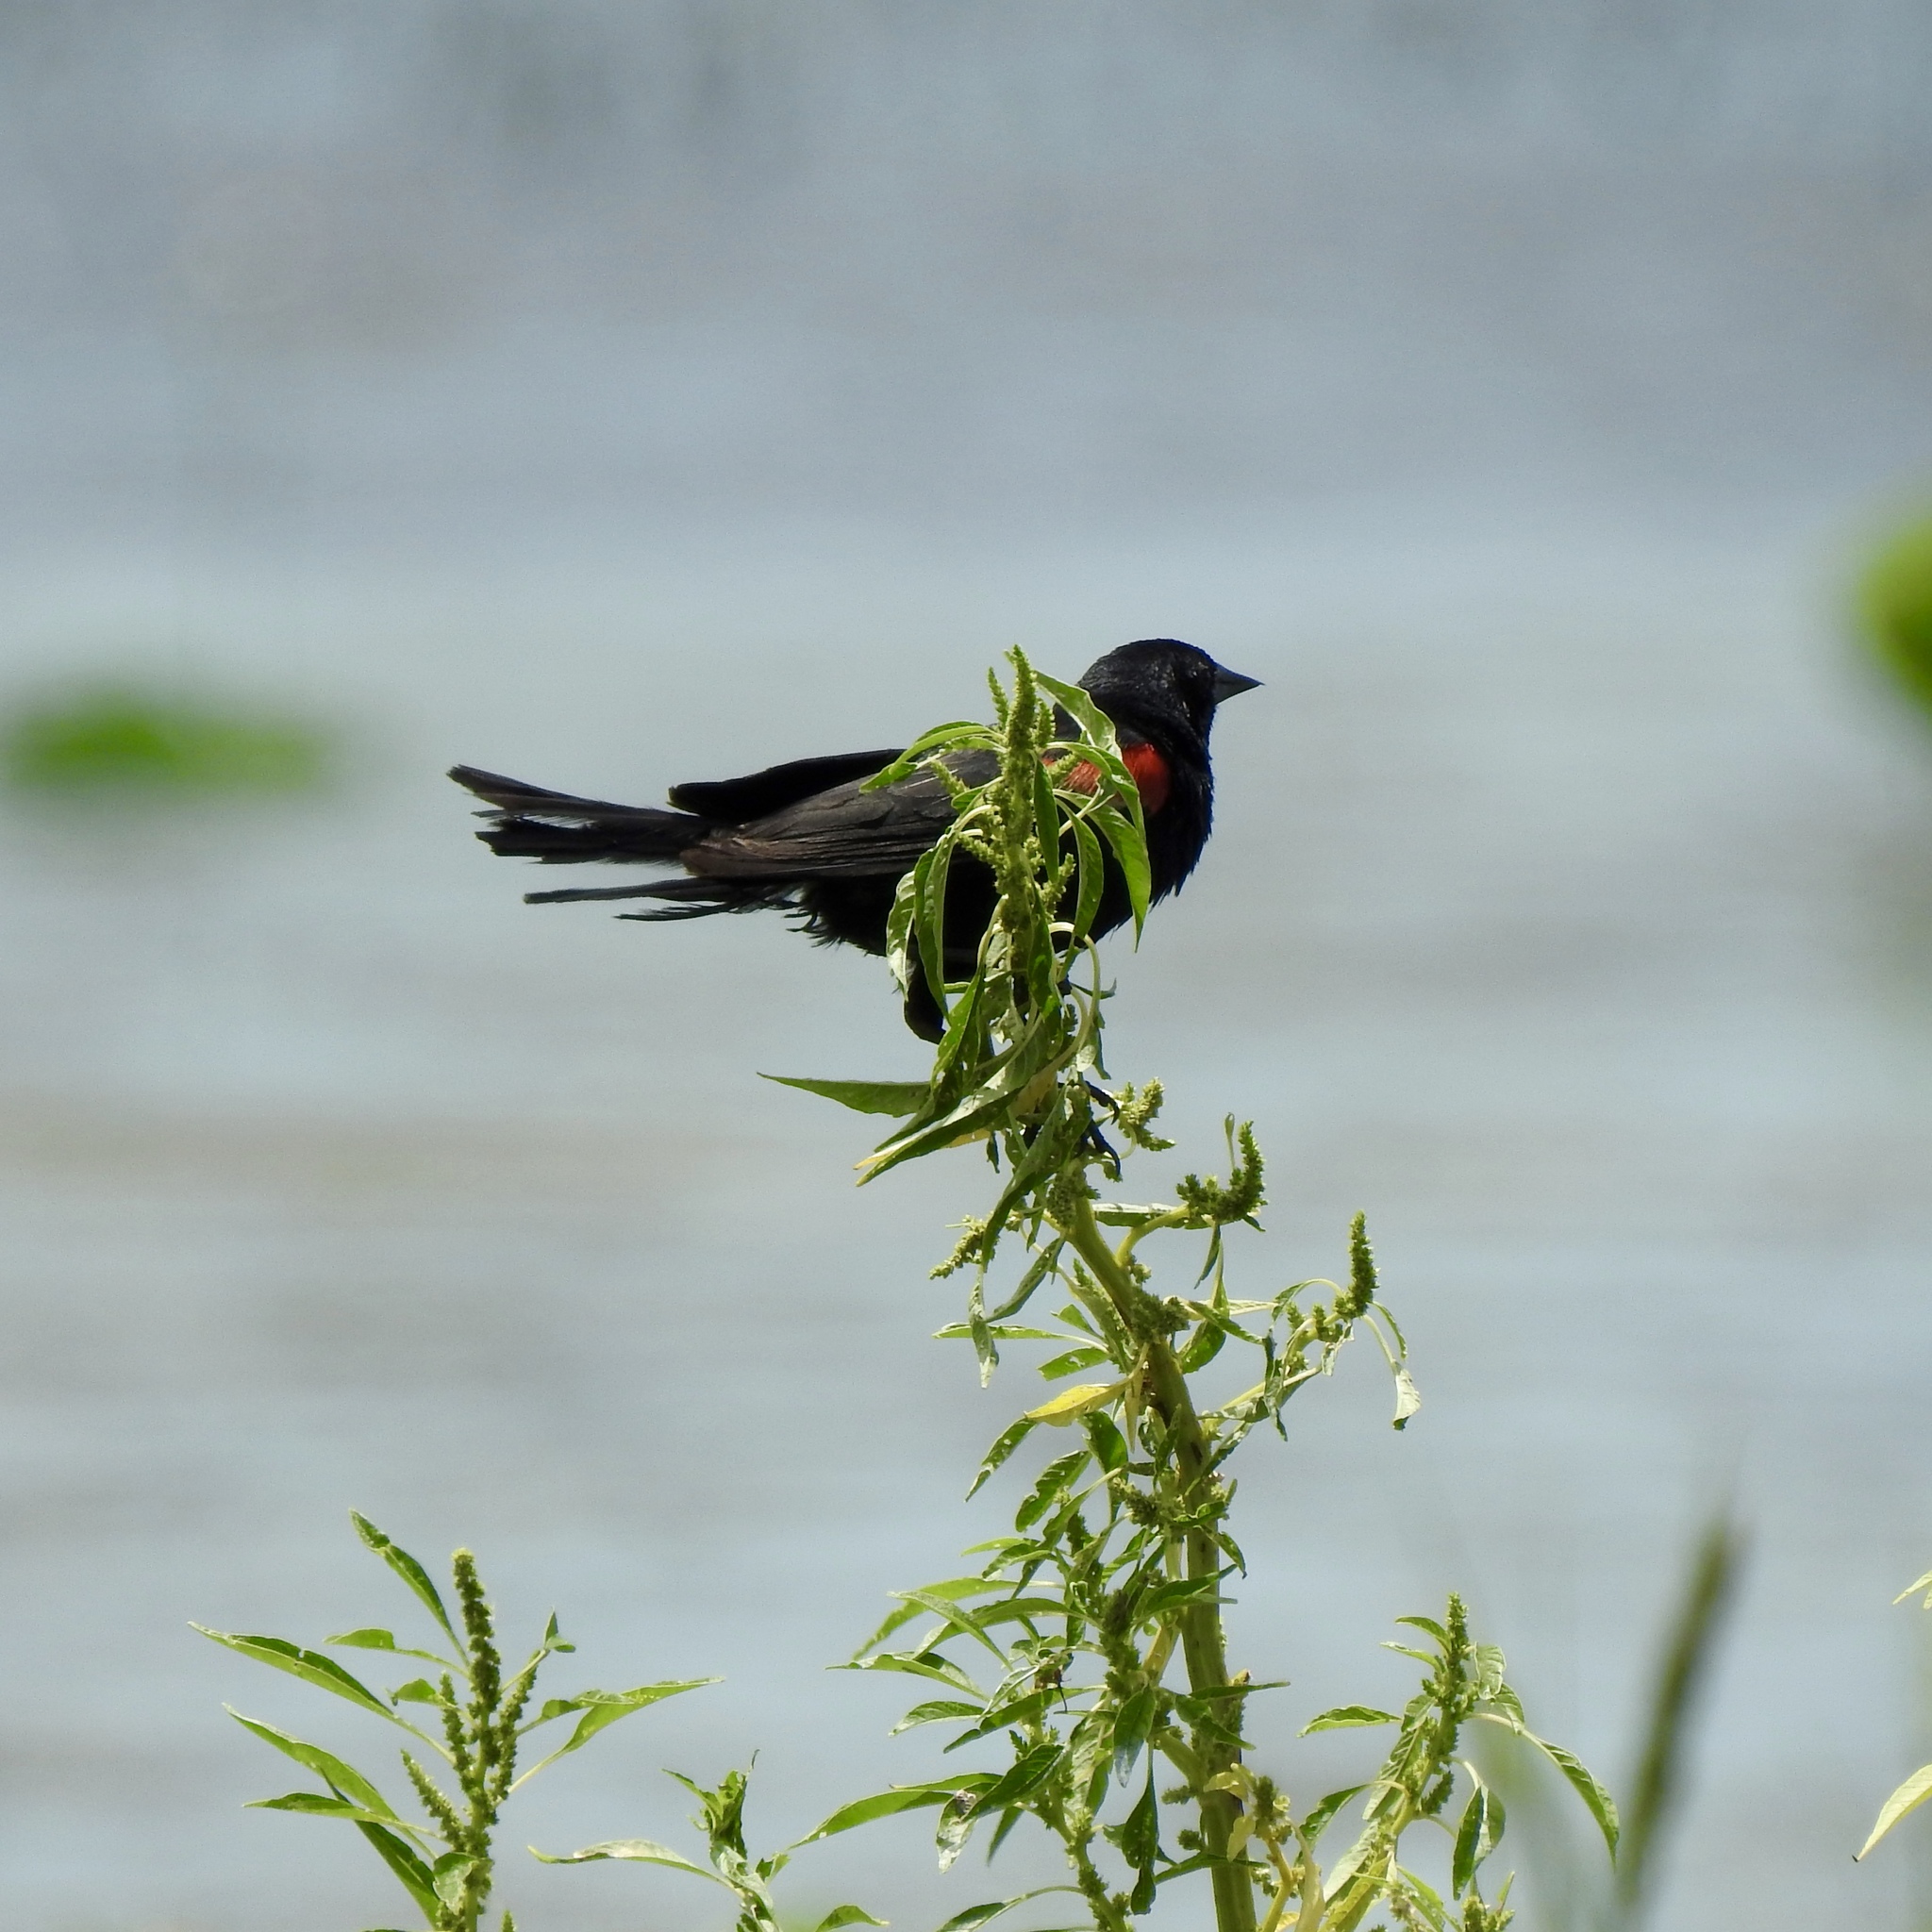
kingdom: Animalia
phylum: Chordata
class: Aves
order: Passeriformes
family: Icteridae
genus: Agelaius
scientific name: Agelaius phoeniceus
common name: Red-winged blackbird
